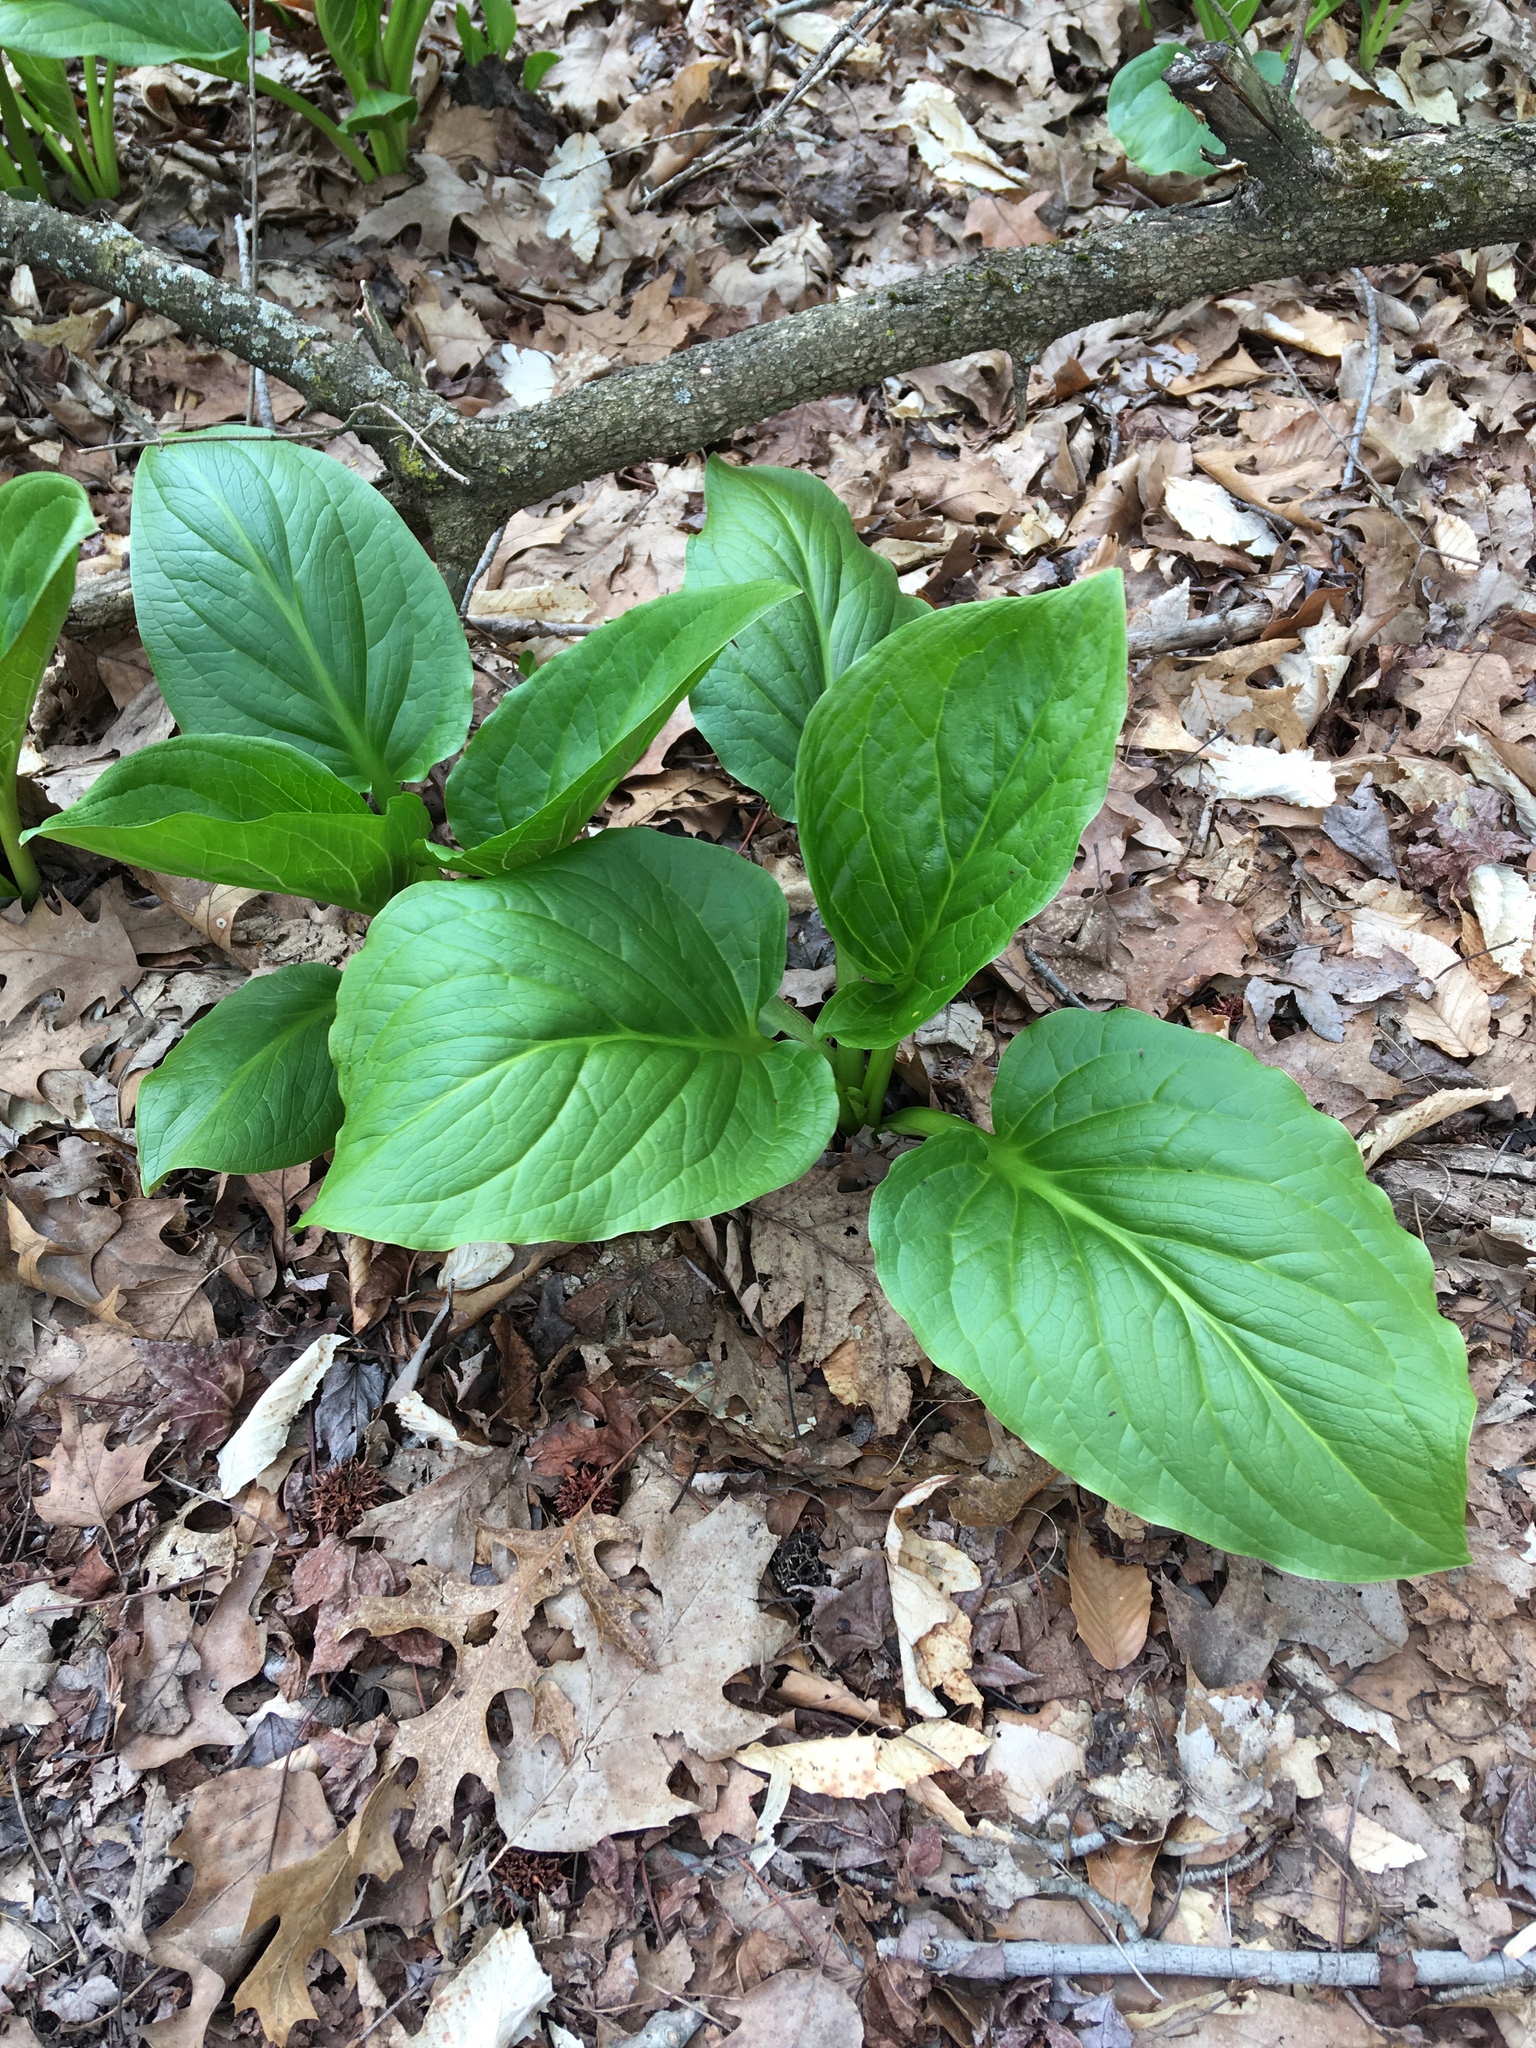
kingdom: Plantae
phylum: Tracheophyta
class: Liliopsida
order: Alismatales
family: Araceae
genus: Symplocarpus
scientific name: Symplocarpus foetidus
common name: Eastern skunk cabbage
